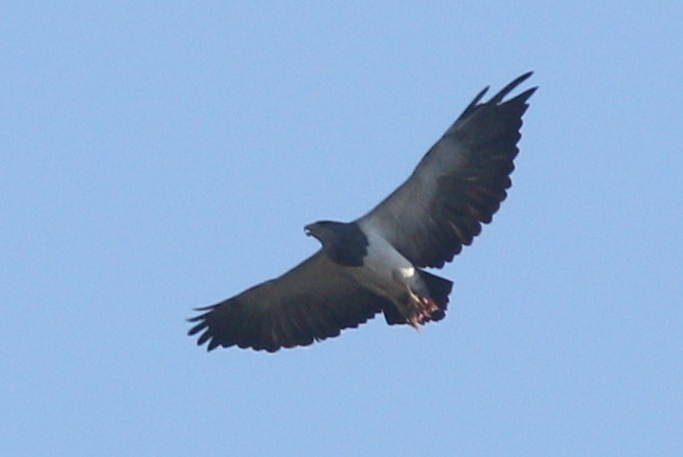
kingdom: Animalia
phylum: Chordata
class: Aves
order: Accipitriformes
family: Accipitridae
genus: Geranoaetus
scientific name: Geranoaetus melanoleucus
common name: Black-chested buzzard-eagle
